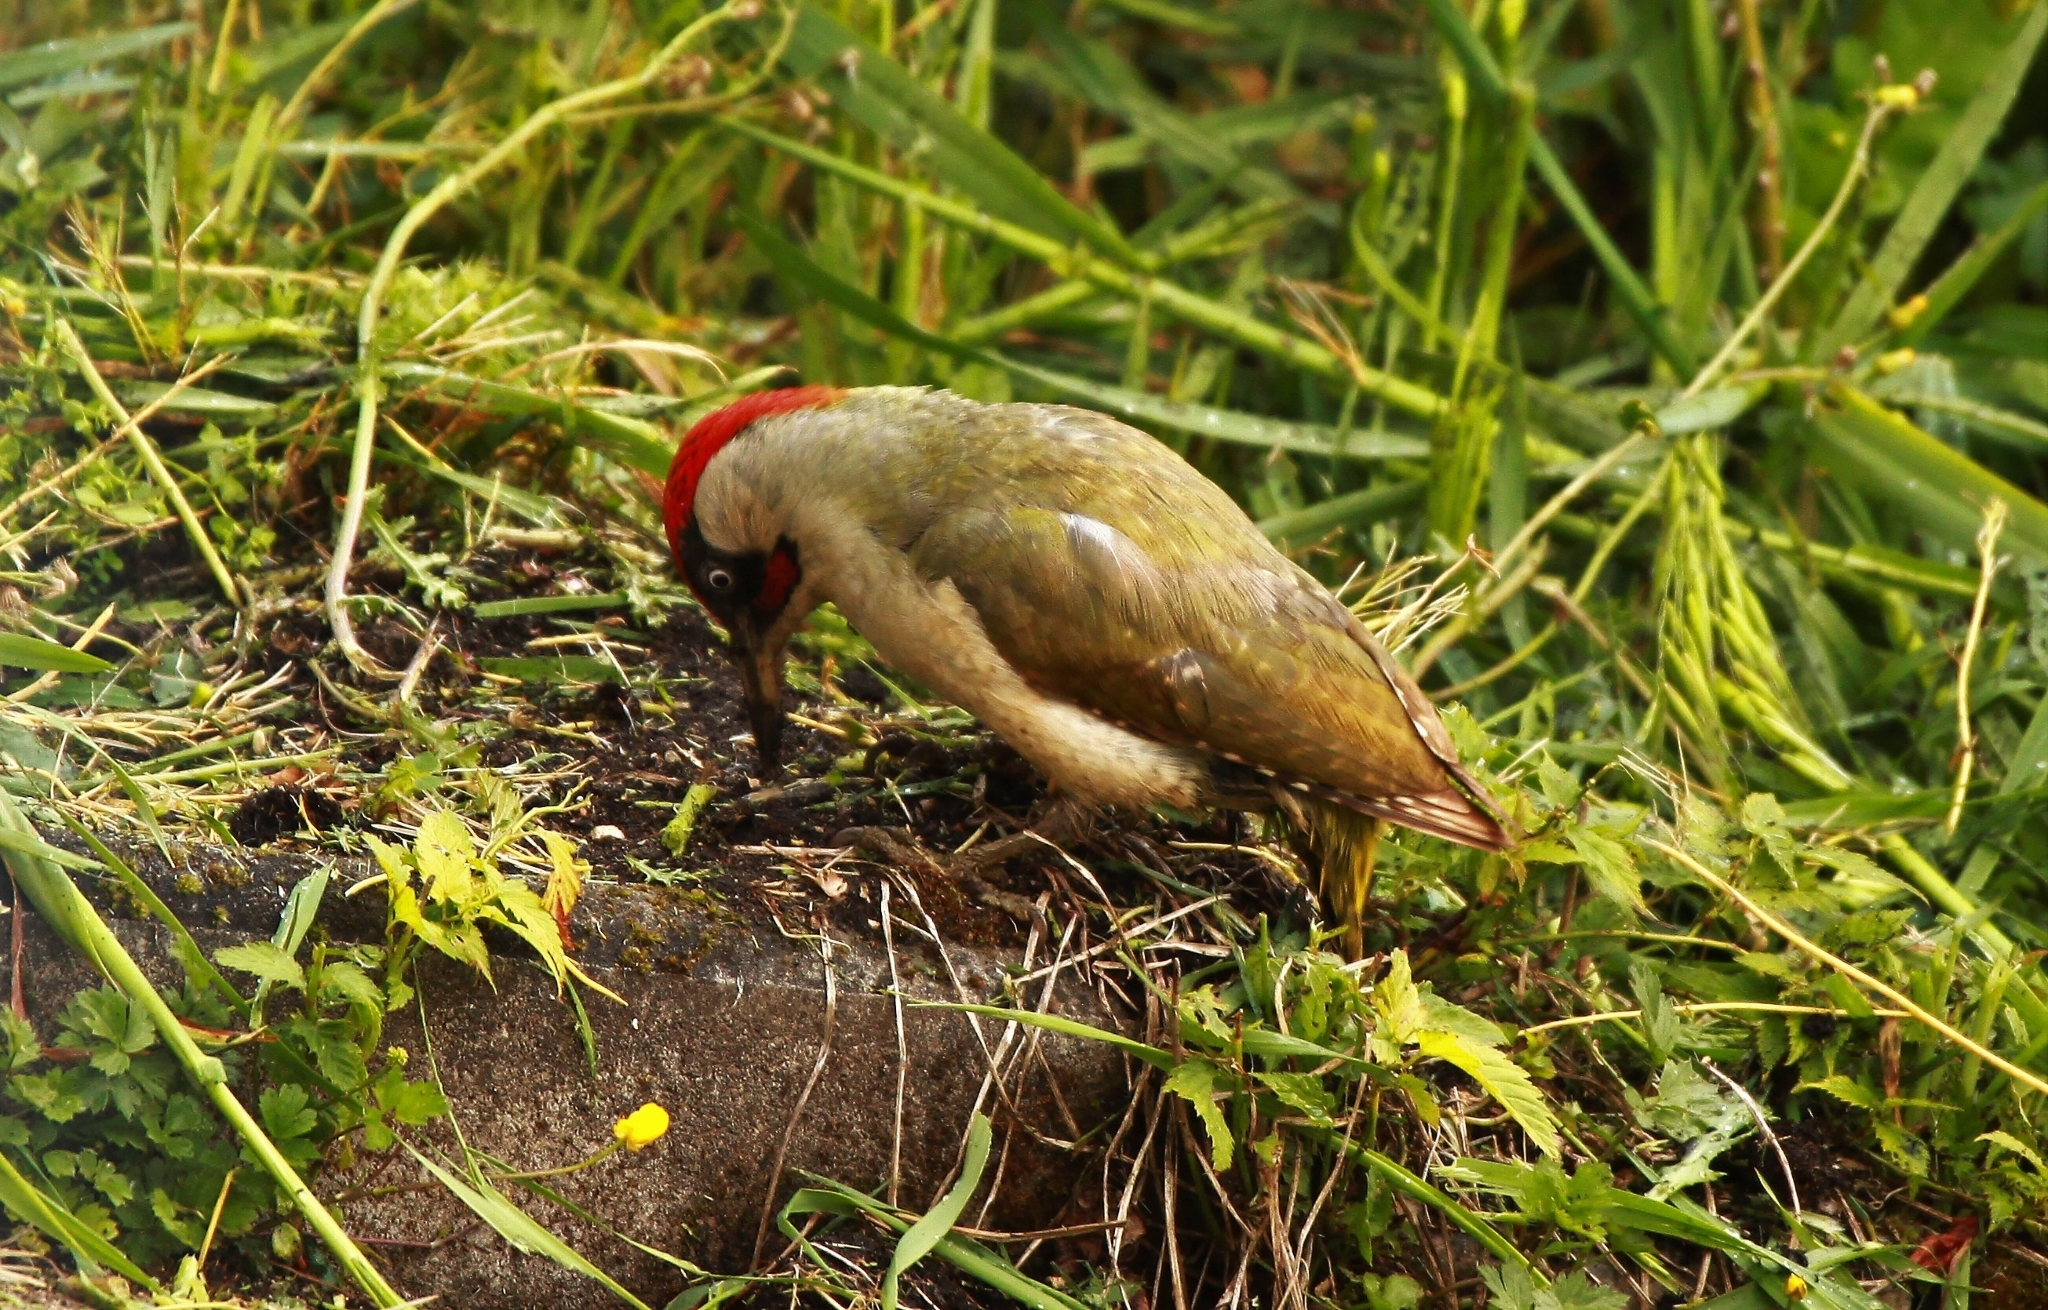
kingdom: Animalia
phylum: Chordata
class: Aves
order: Piciformes
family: Picidae
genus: Picus
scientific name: Picus viridis
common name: European green woodpecker
